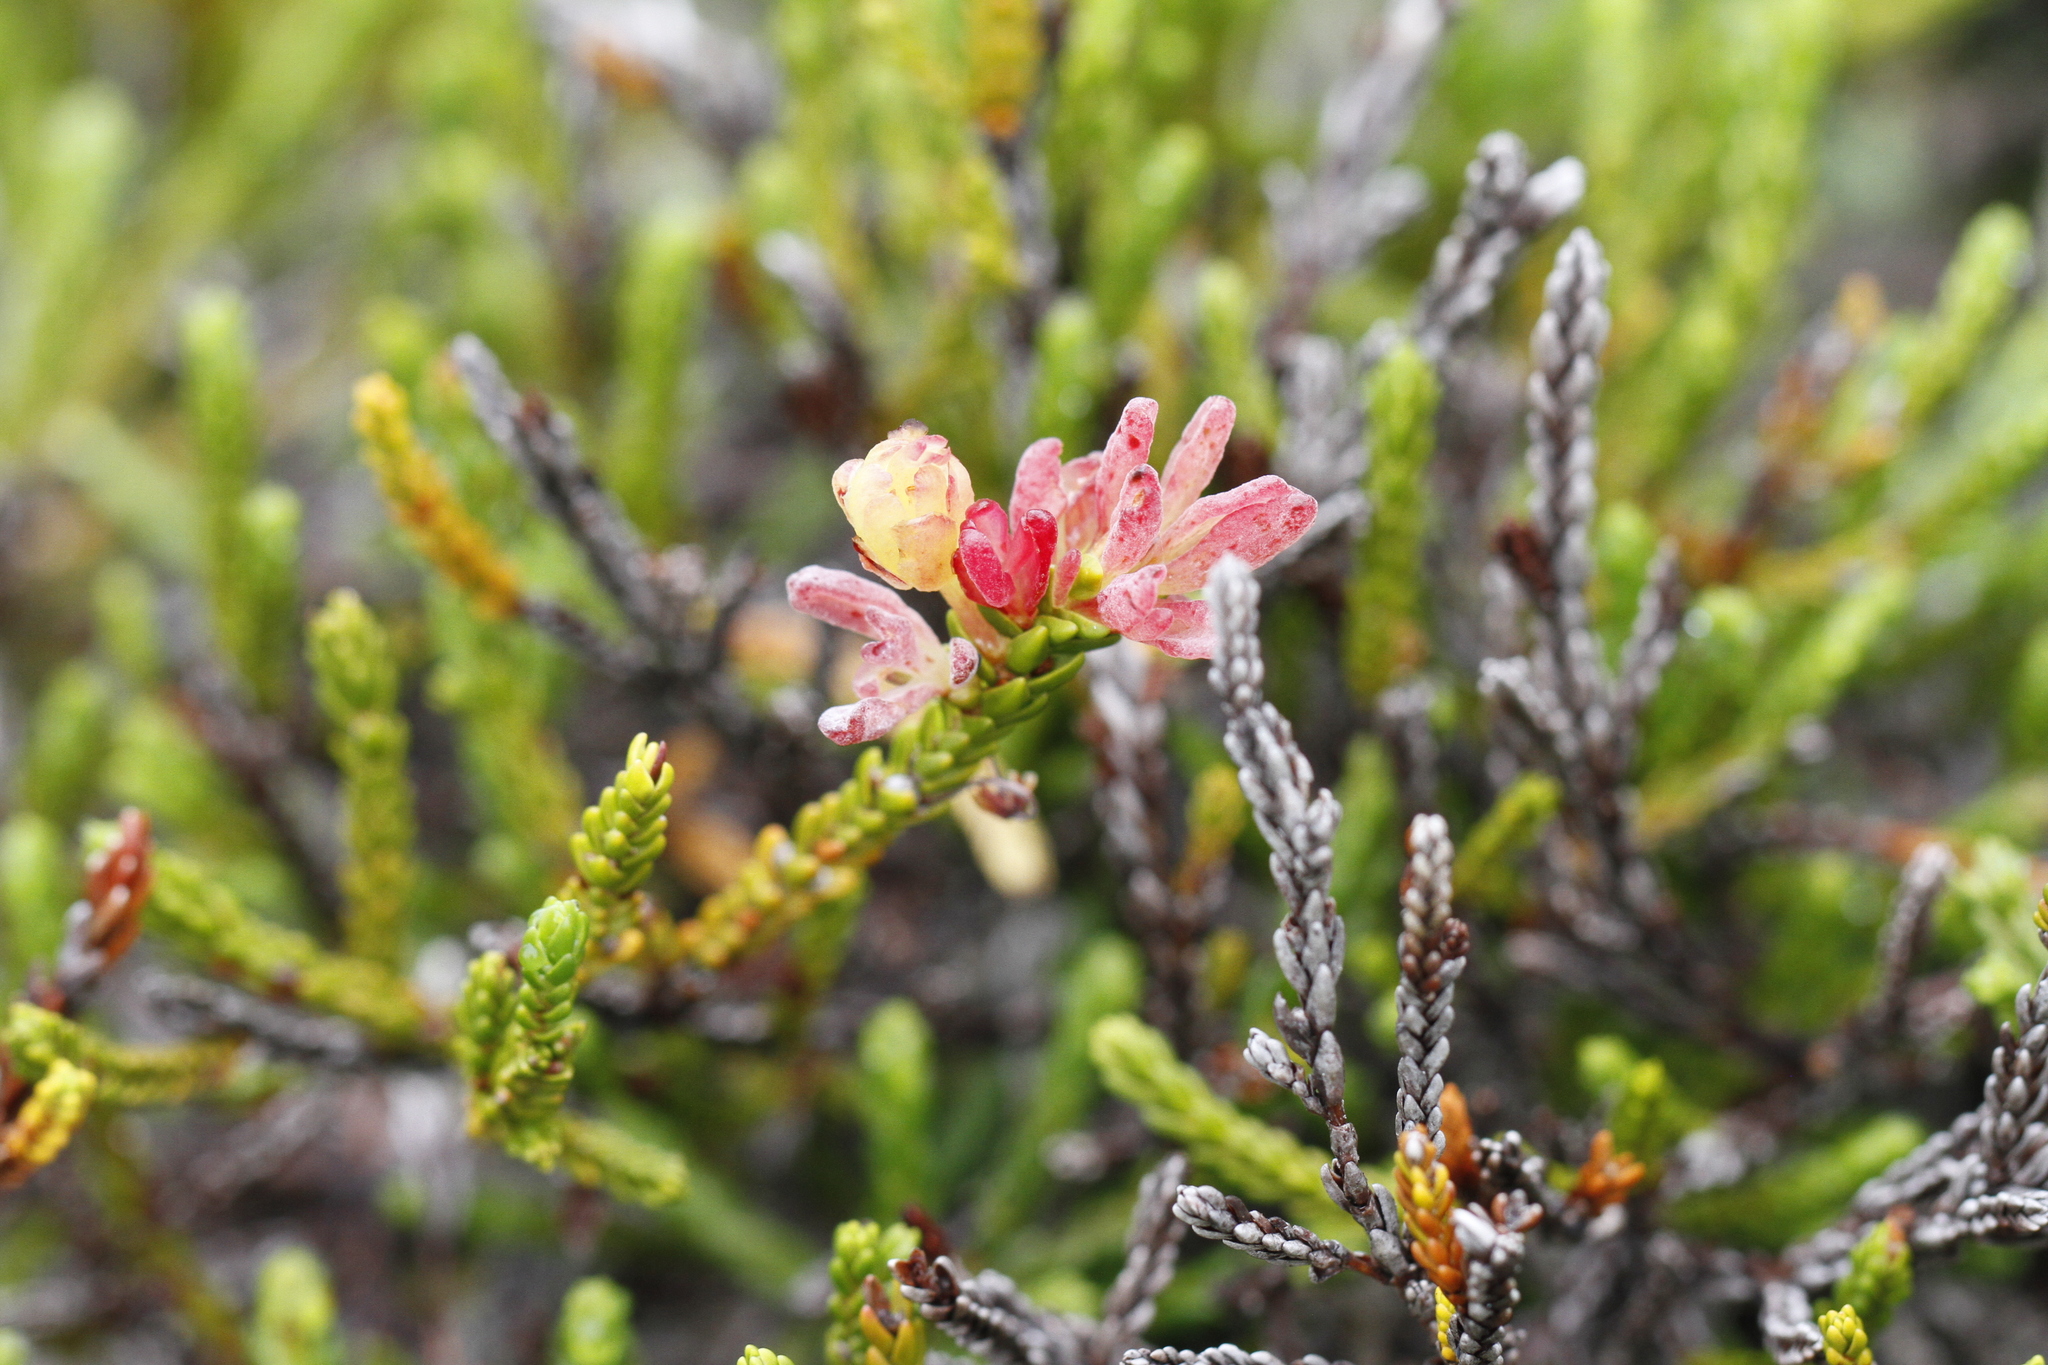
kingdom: Fungi
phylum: Basidiomycota
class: Exobasidiomycetes
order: Exobasidiales
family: Exobasidiaceae
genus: Exobasidium
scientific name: Exobasidium cassiopes
